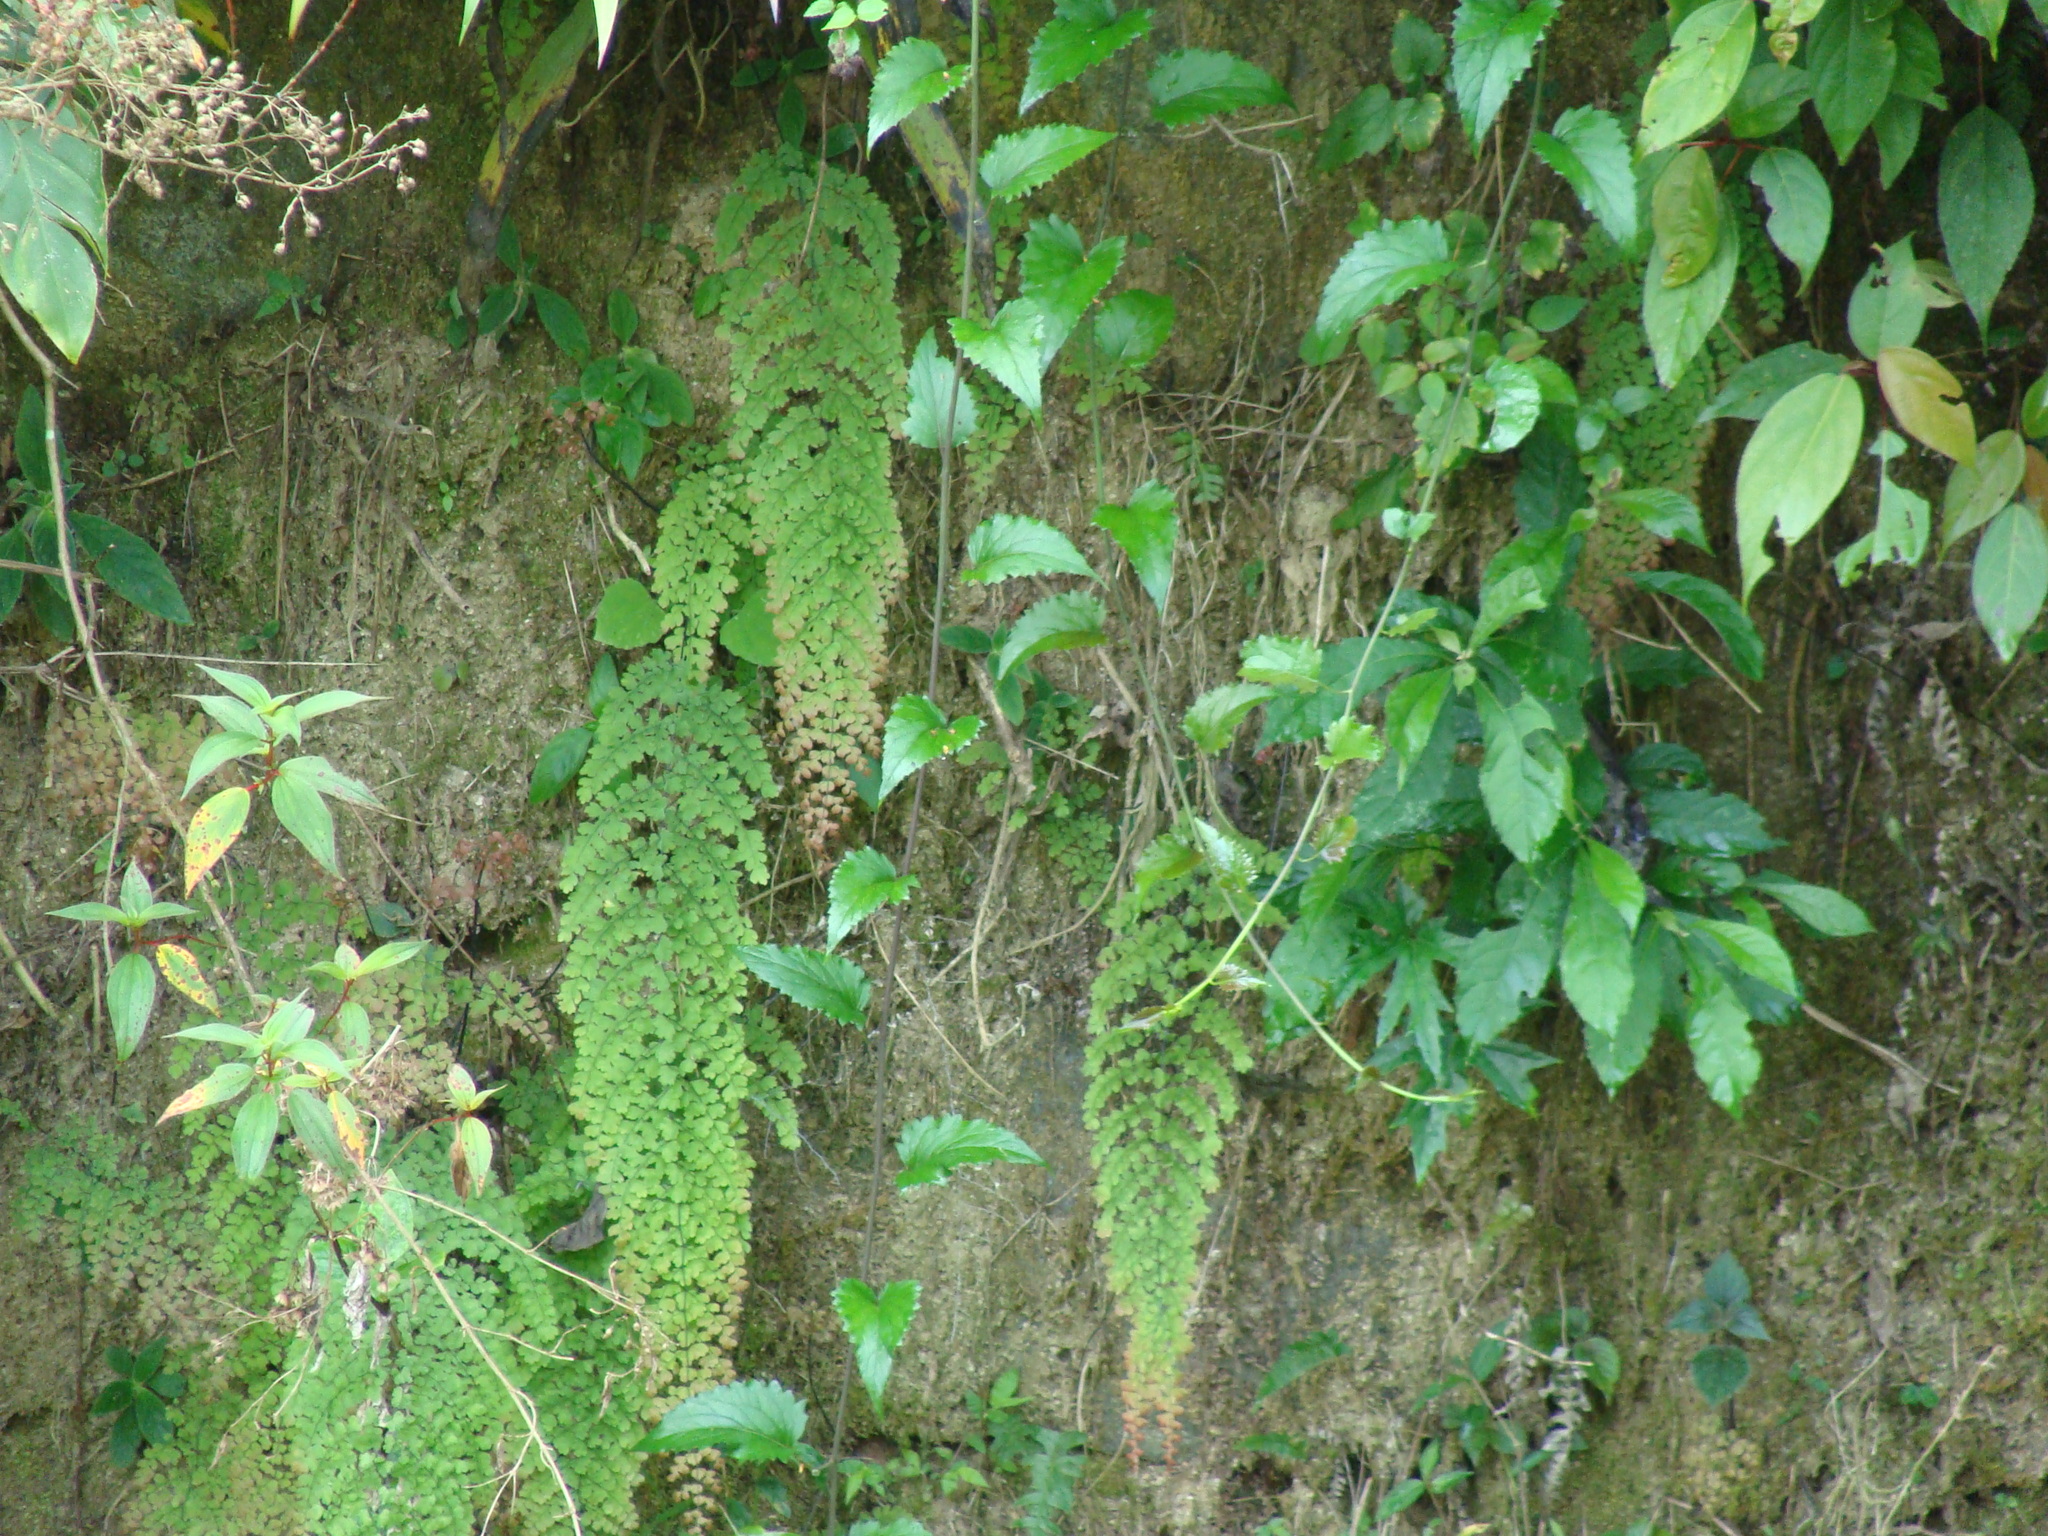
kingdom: Plantae
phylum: Tracheophyta
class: Polypodiopsida
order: Polypodiales
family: Pteridaceae
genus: Adiantum
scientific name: Adiantum concinnum
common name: Brittle maidenhair fern
